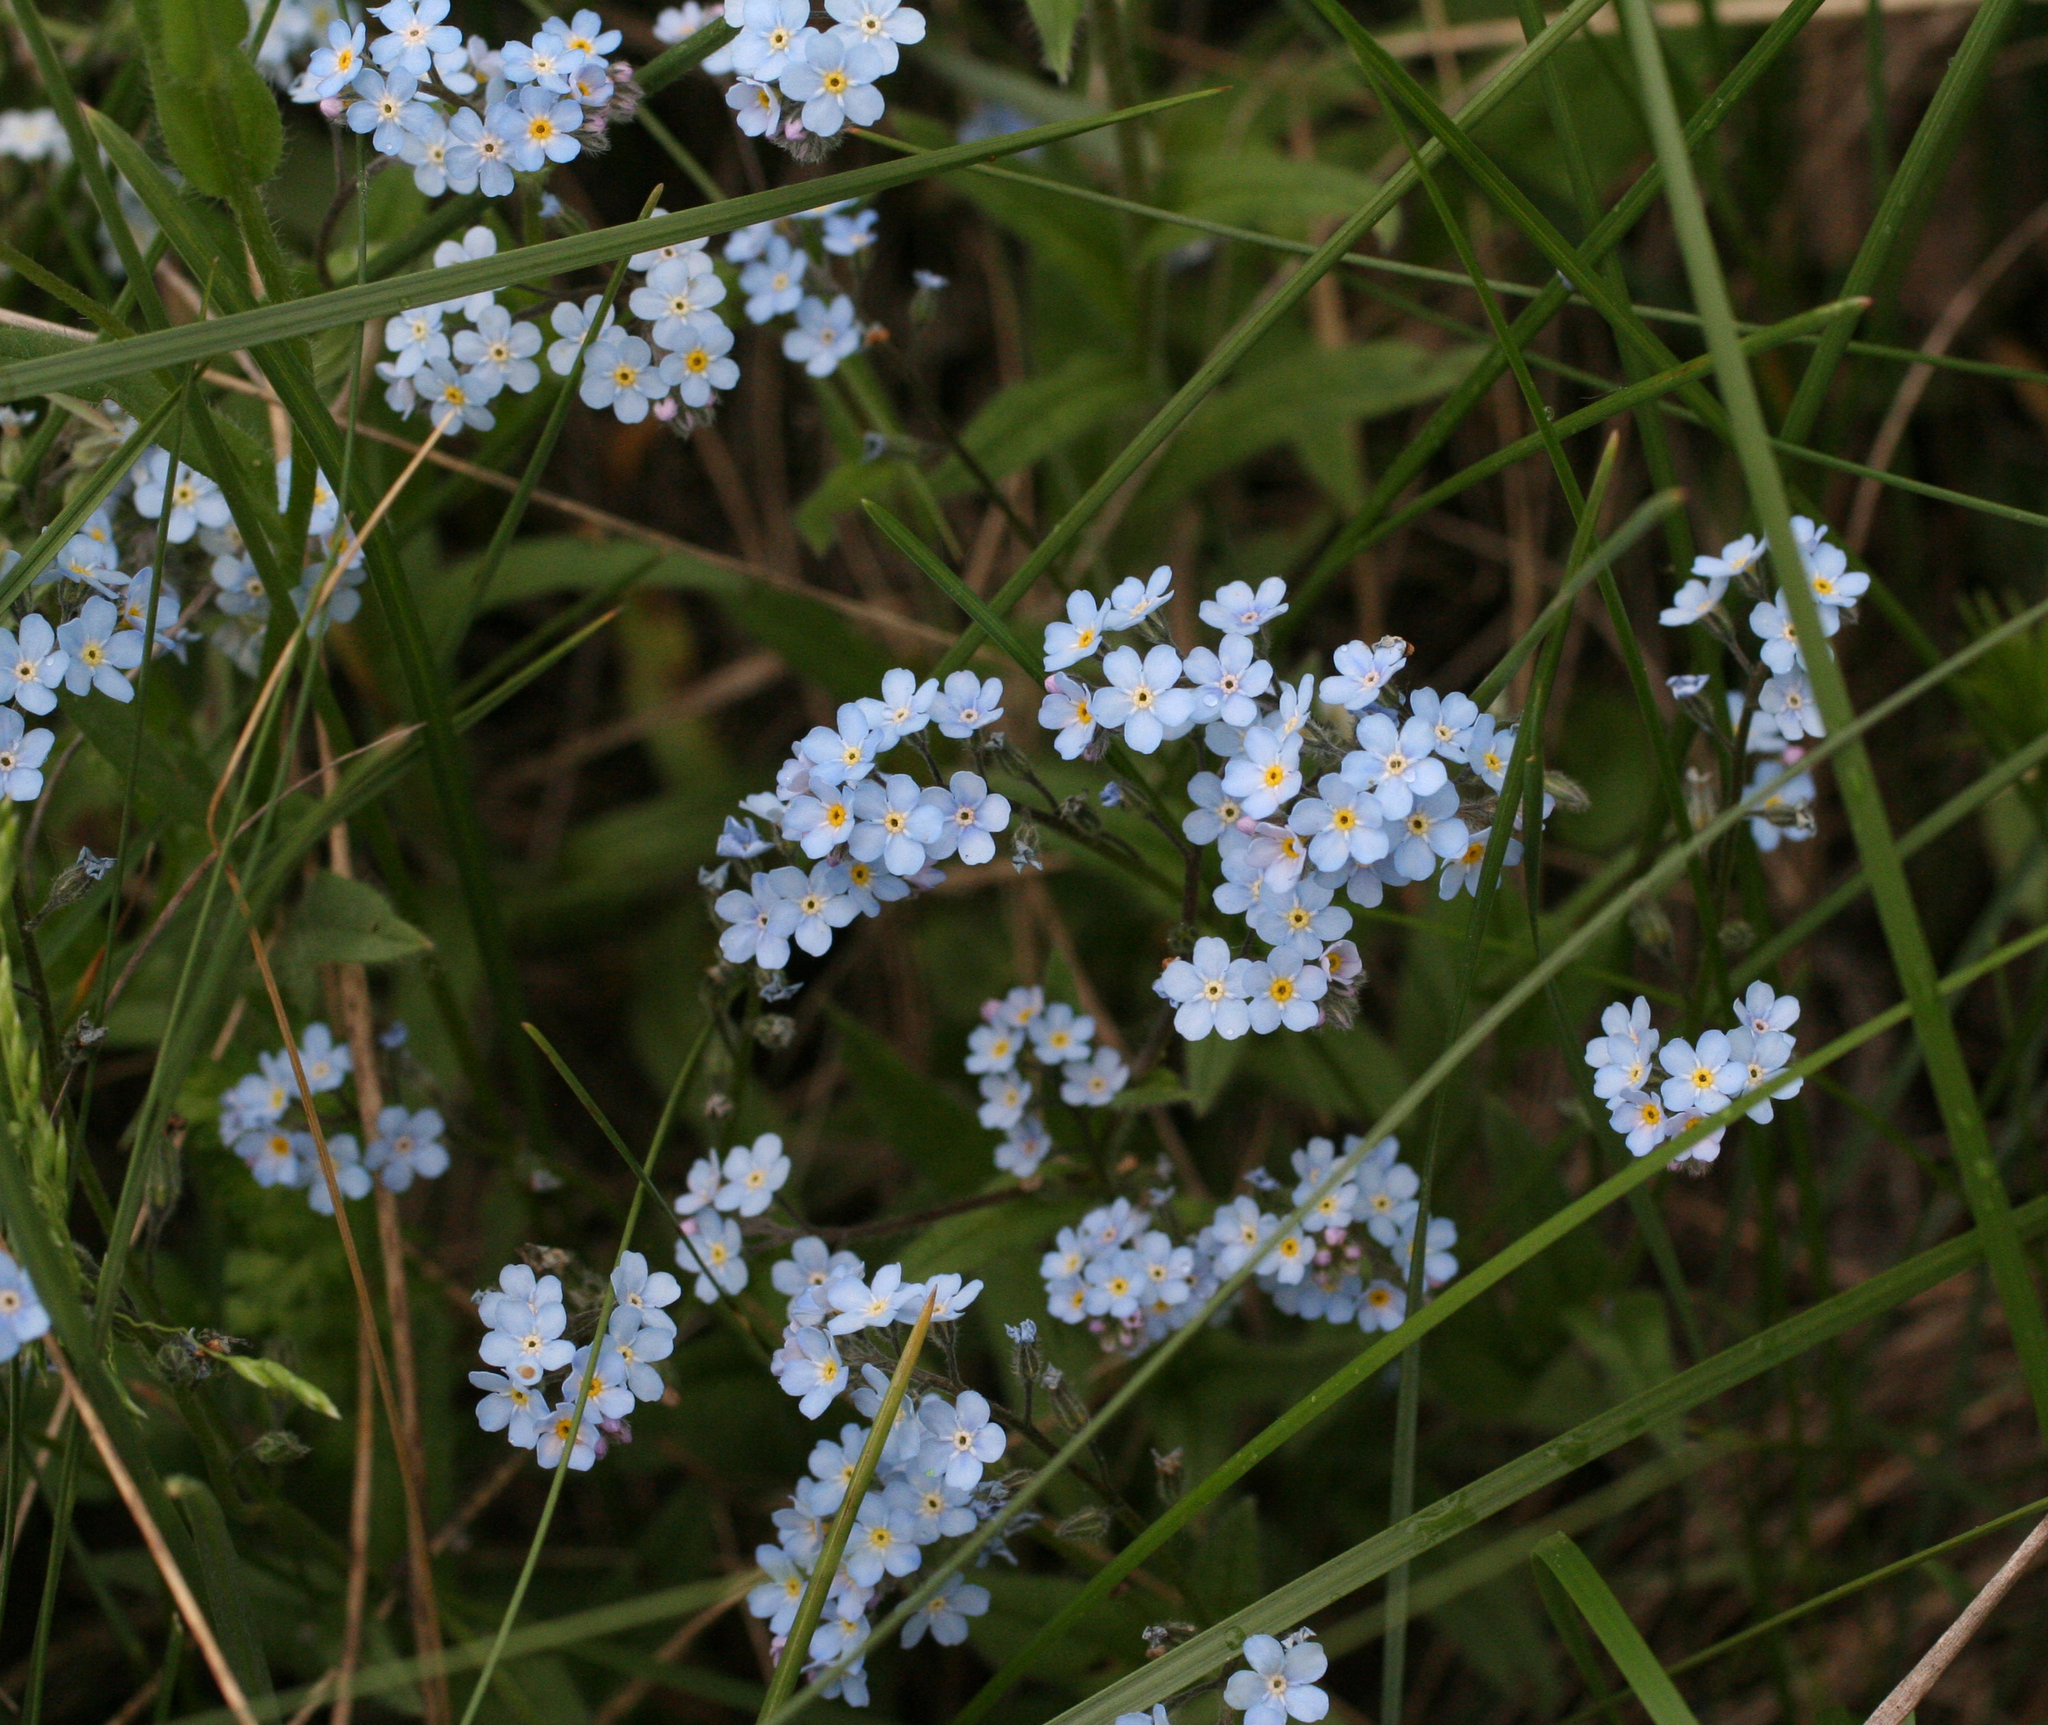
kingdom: Plantae
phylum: Tracheophyta
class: Magnoliopsida
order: Boraginales
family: Boraginaceae
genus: Myosotis
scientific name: Myosotis imitata
